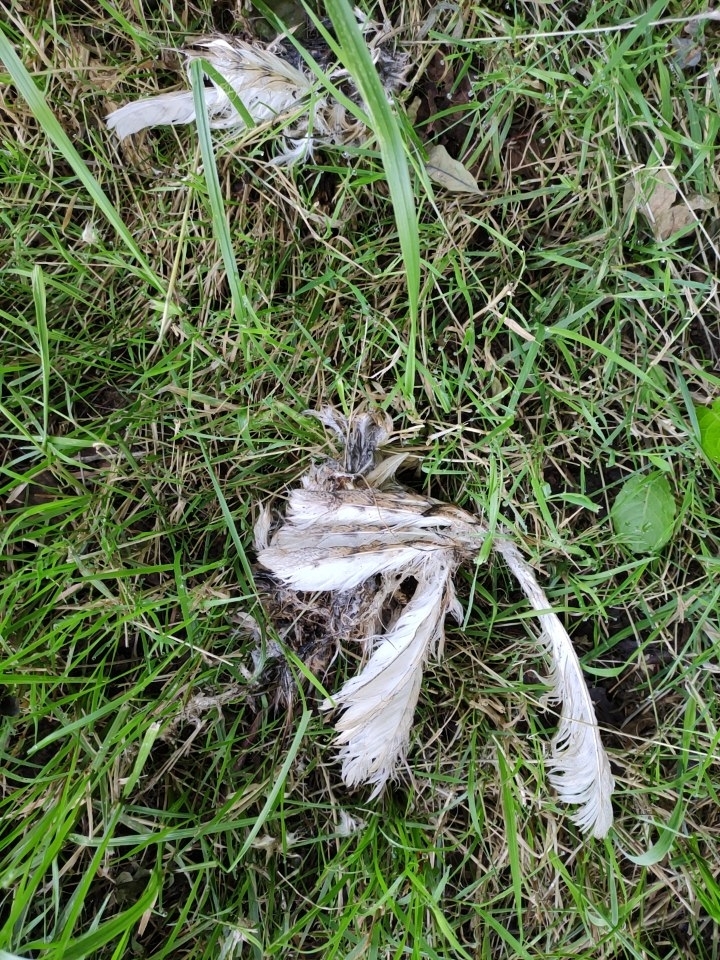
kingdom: Animalia
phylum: Chordata
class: Aves
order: Strigiformes
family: Tytonidae
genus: Tyto
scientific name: Tyto alba
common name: Barn owl
